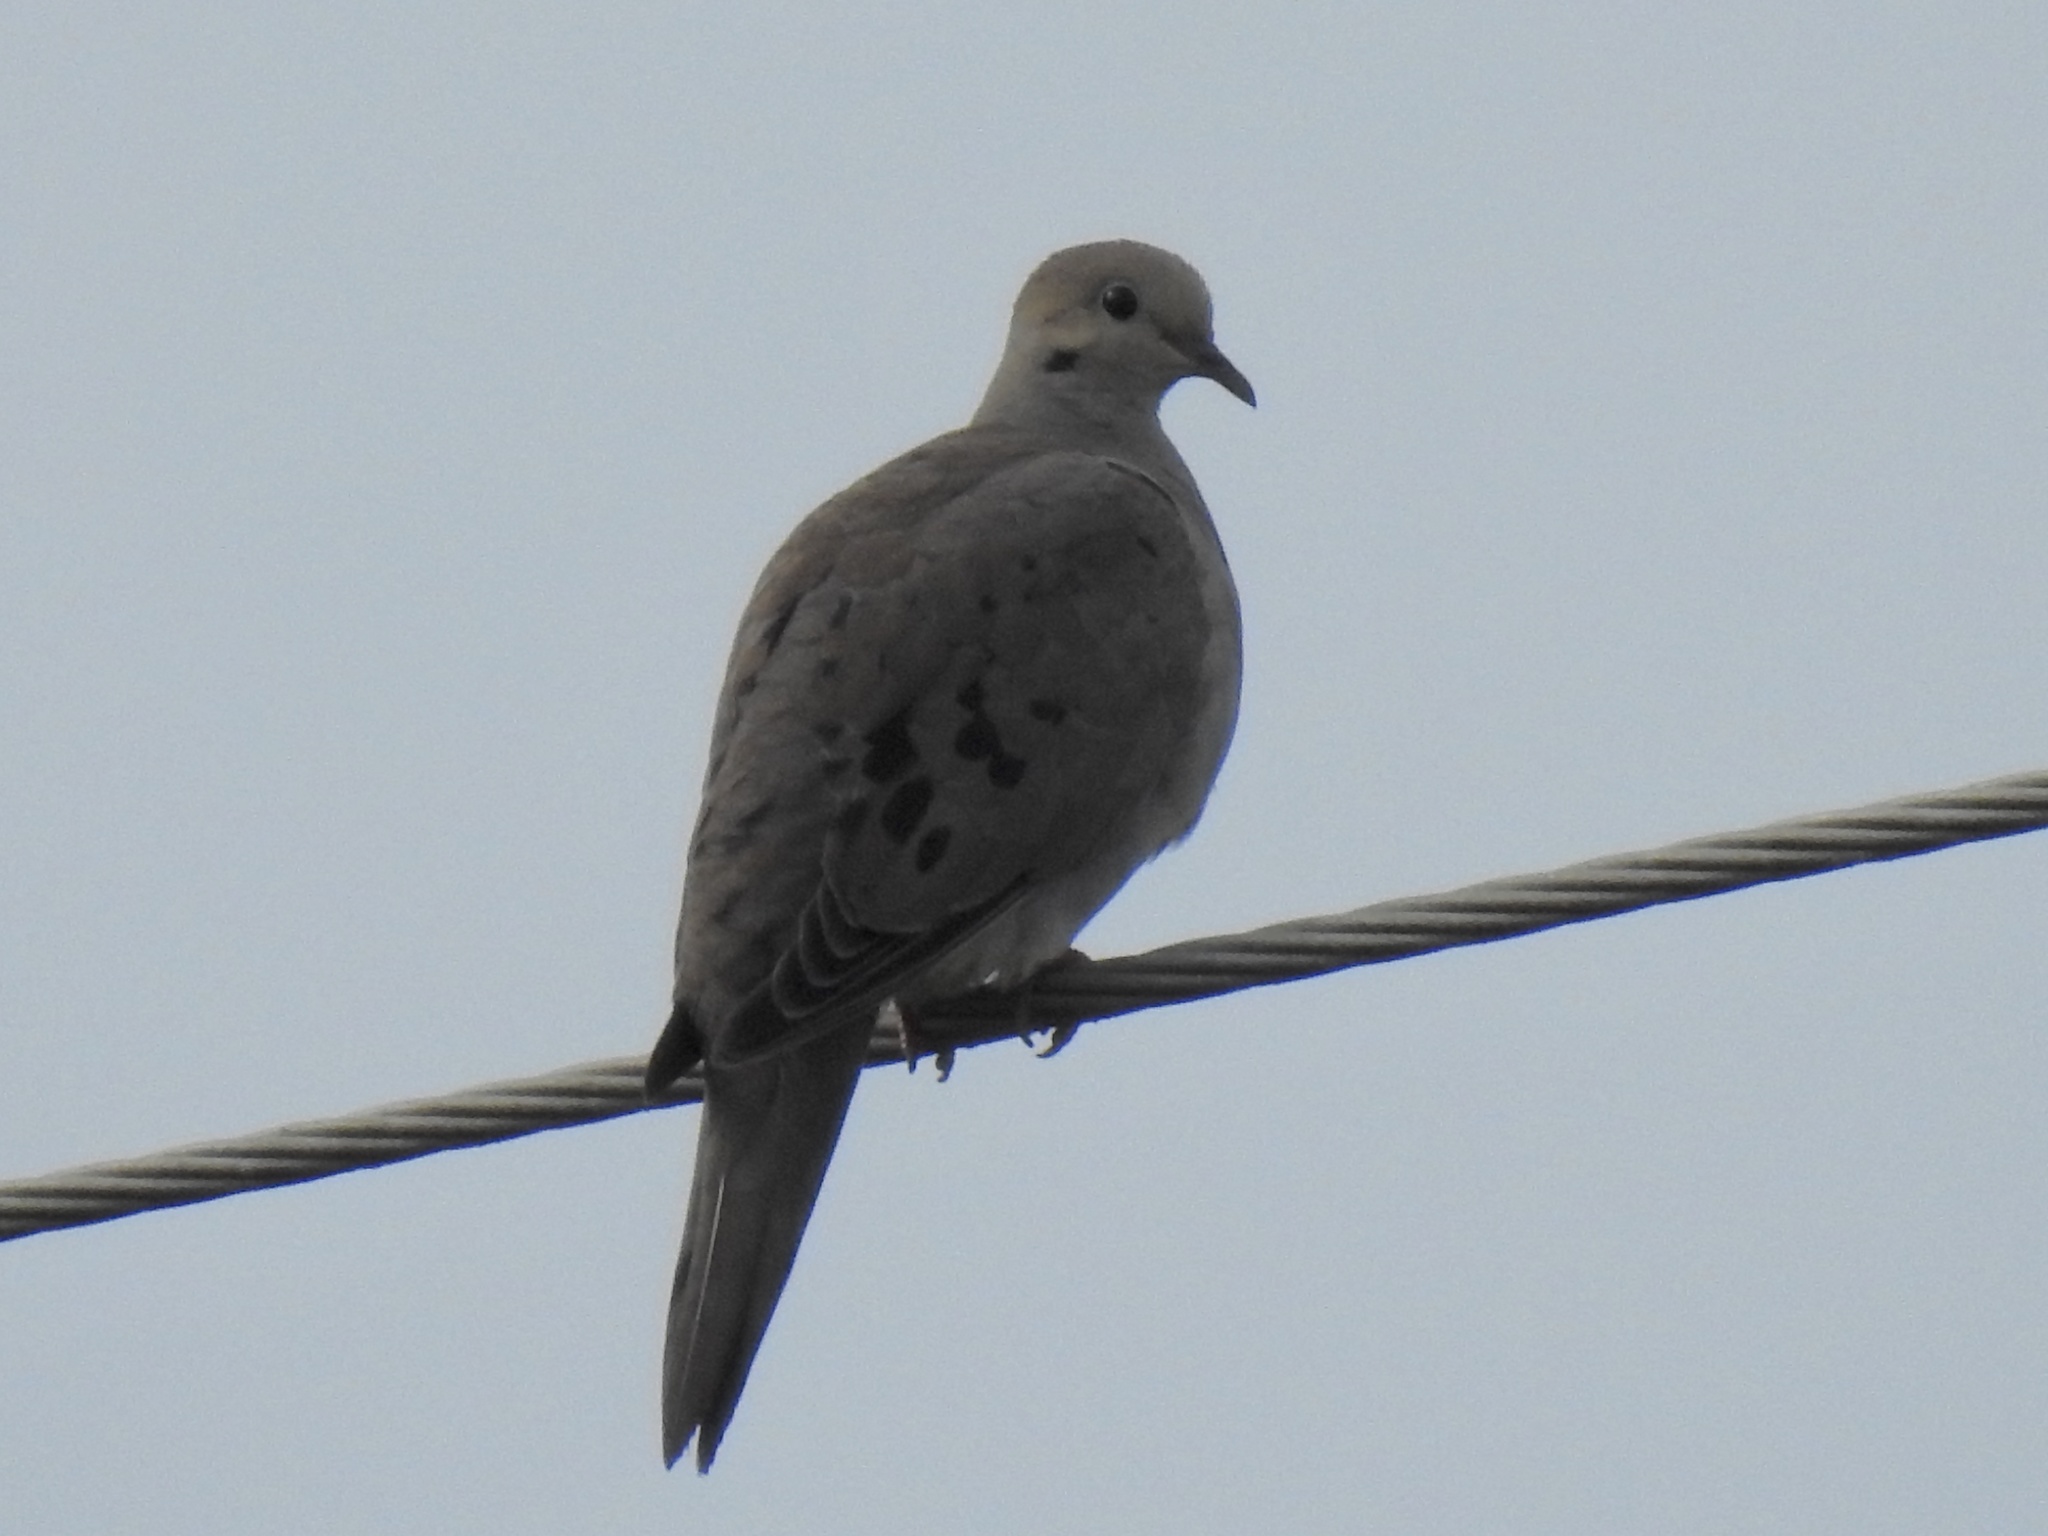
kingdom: Animalia
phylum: Chordata
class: Aves
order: Columbiformes
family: Columbidae
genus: Zenaida
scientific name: Zenaida macroura
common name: Mourning dove
